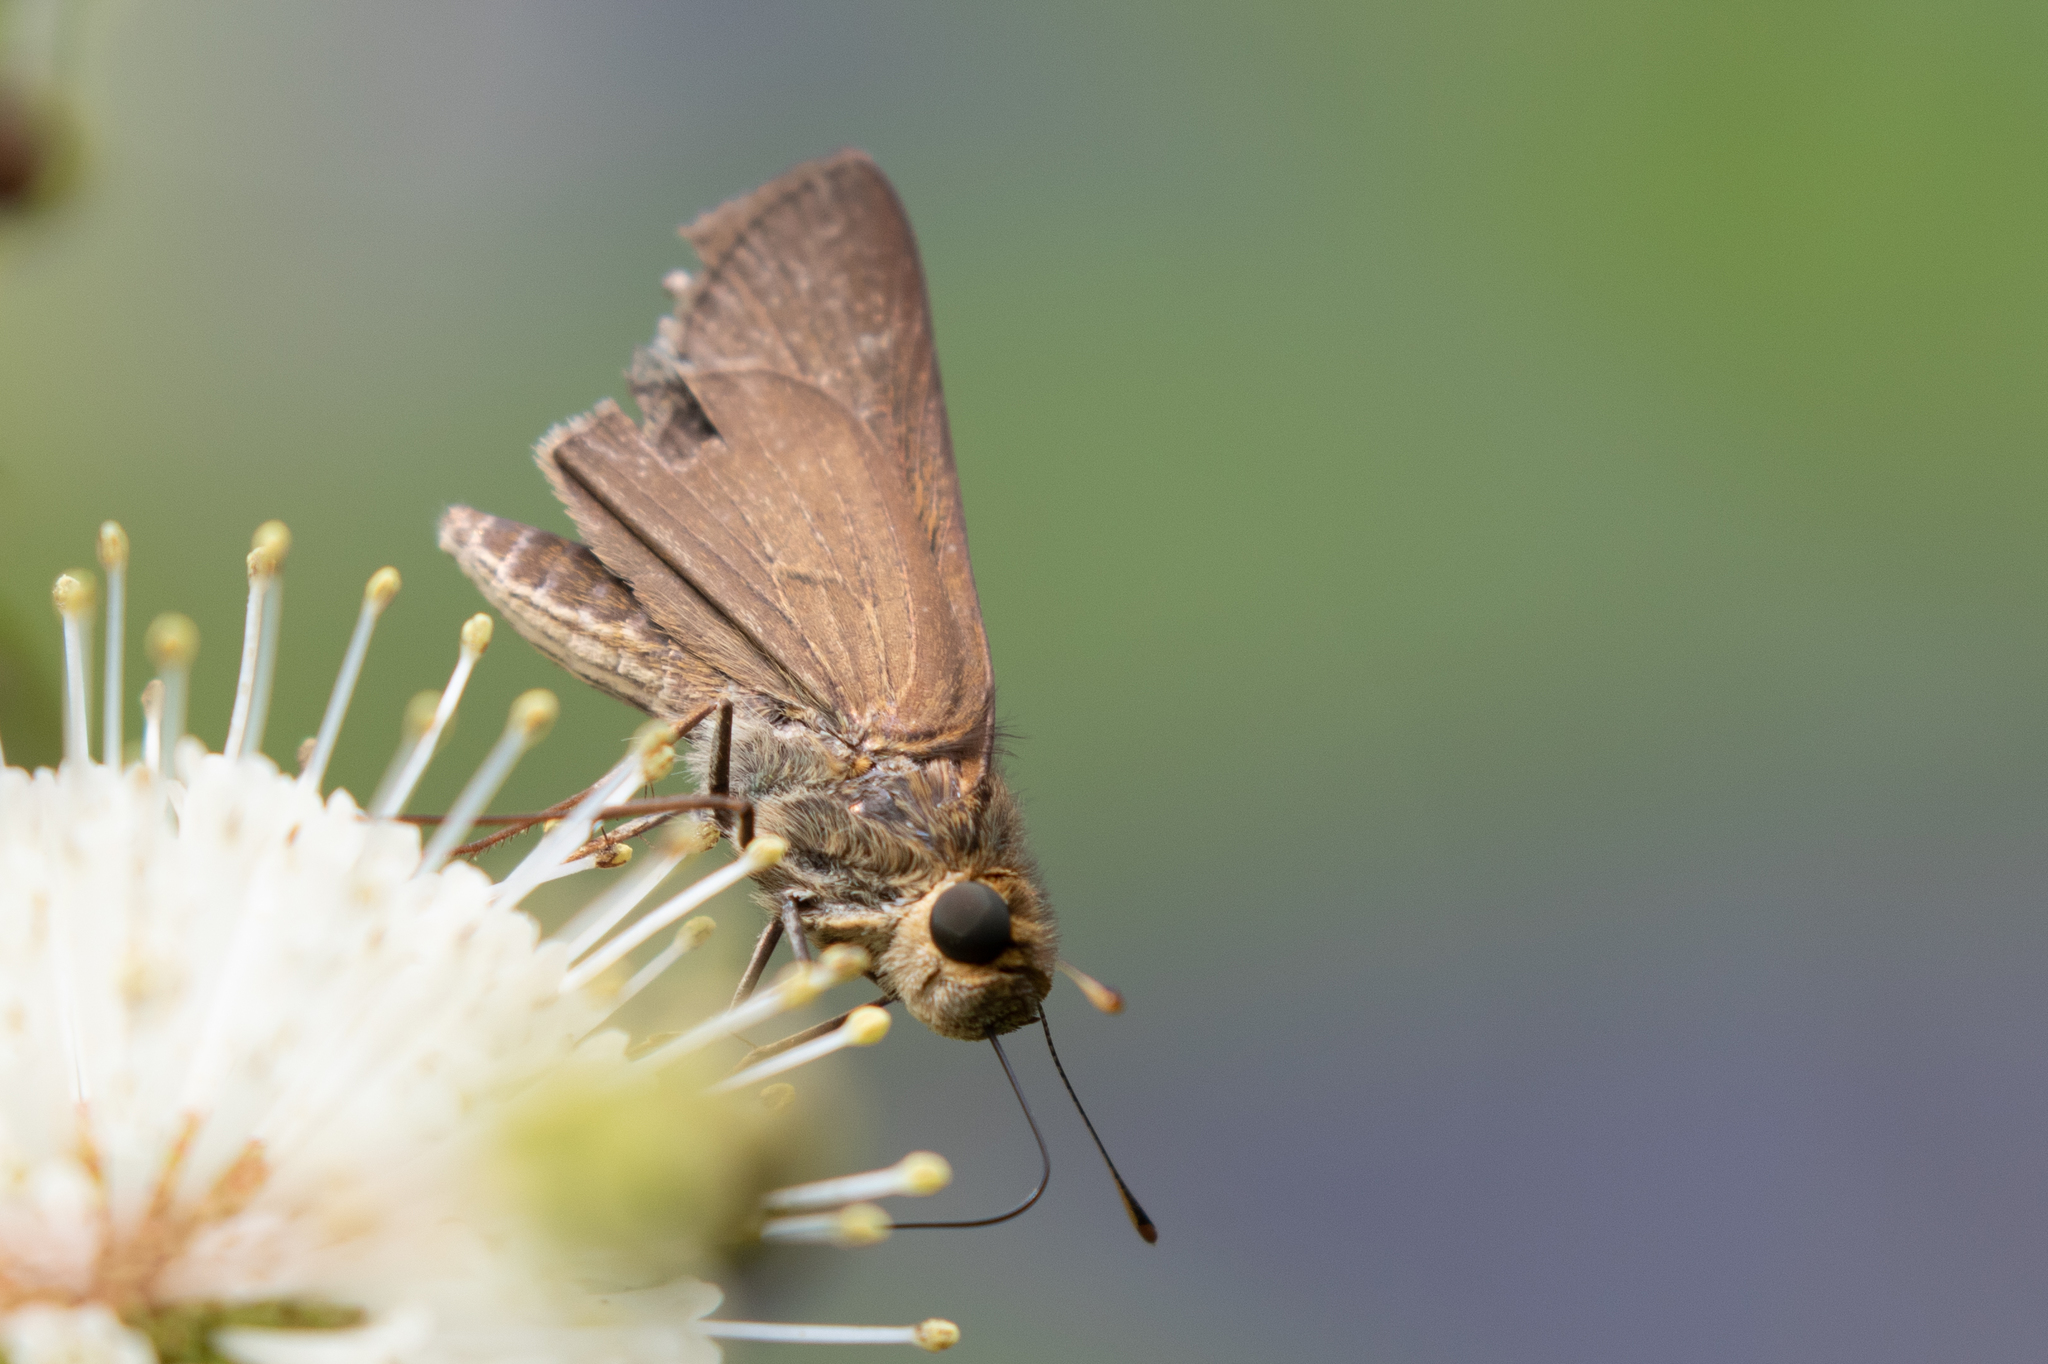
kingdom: Animalia
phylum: Arthropoda
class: Insecta
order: Lepidoptera
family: Hesperiidae
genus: Panoquina
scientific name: Panoquina ocola
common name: Ocola skipper
